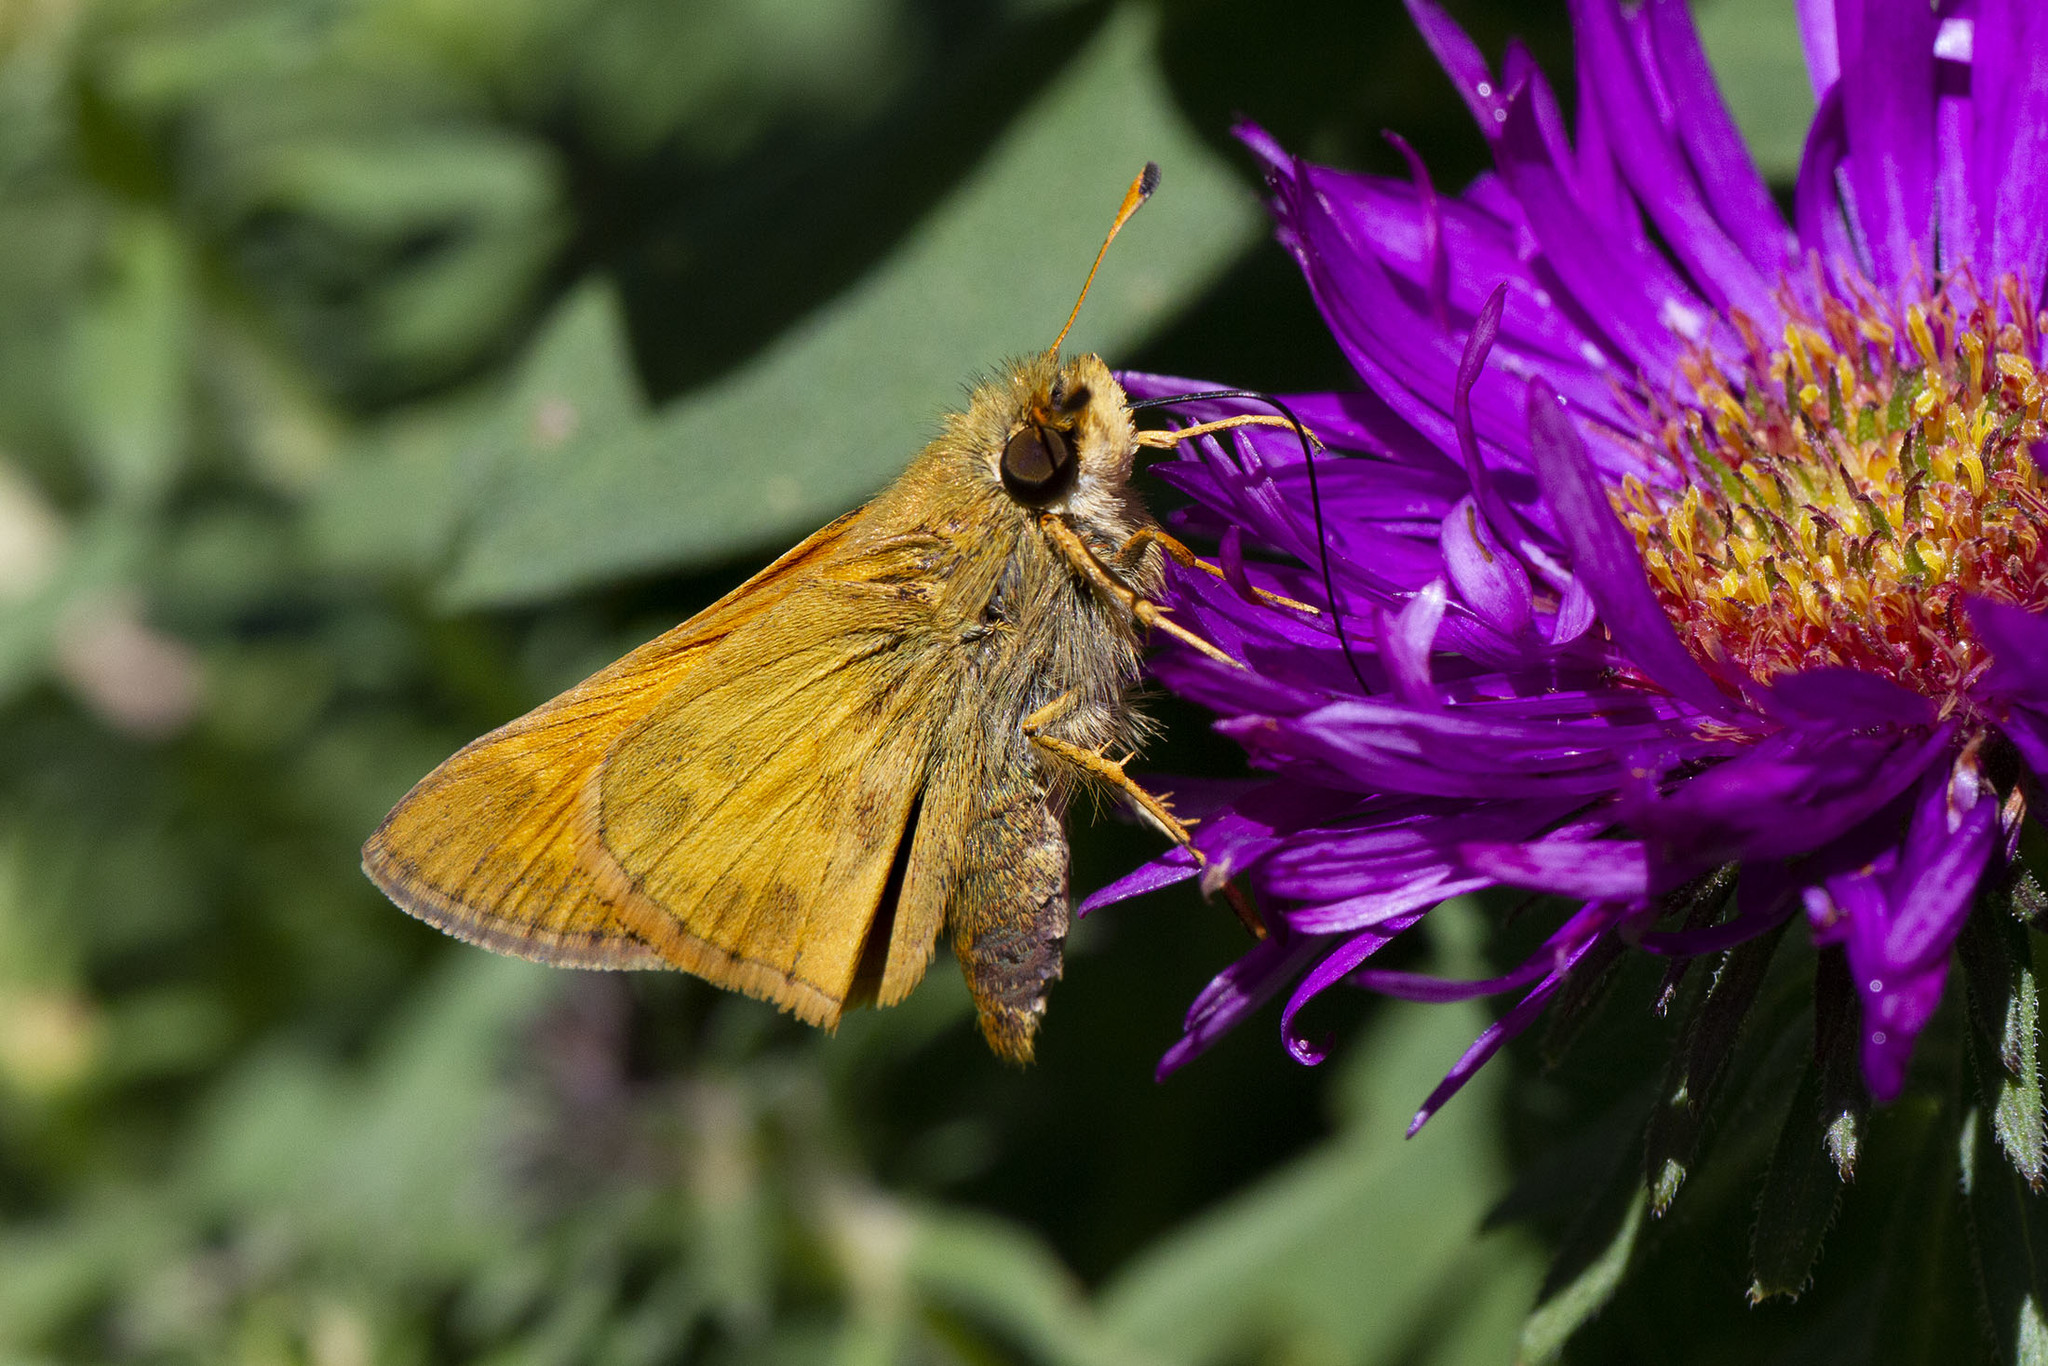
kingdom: Animalia
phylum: Arthropoda
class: Insecta
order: Lepidoptera
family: Hesperiidae
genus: Atalopedes
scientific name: Atalopedes
